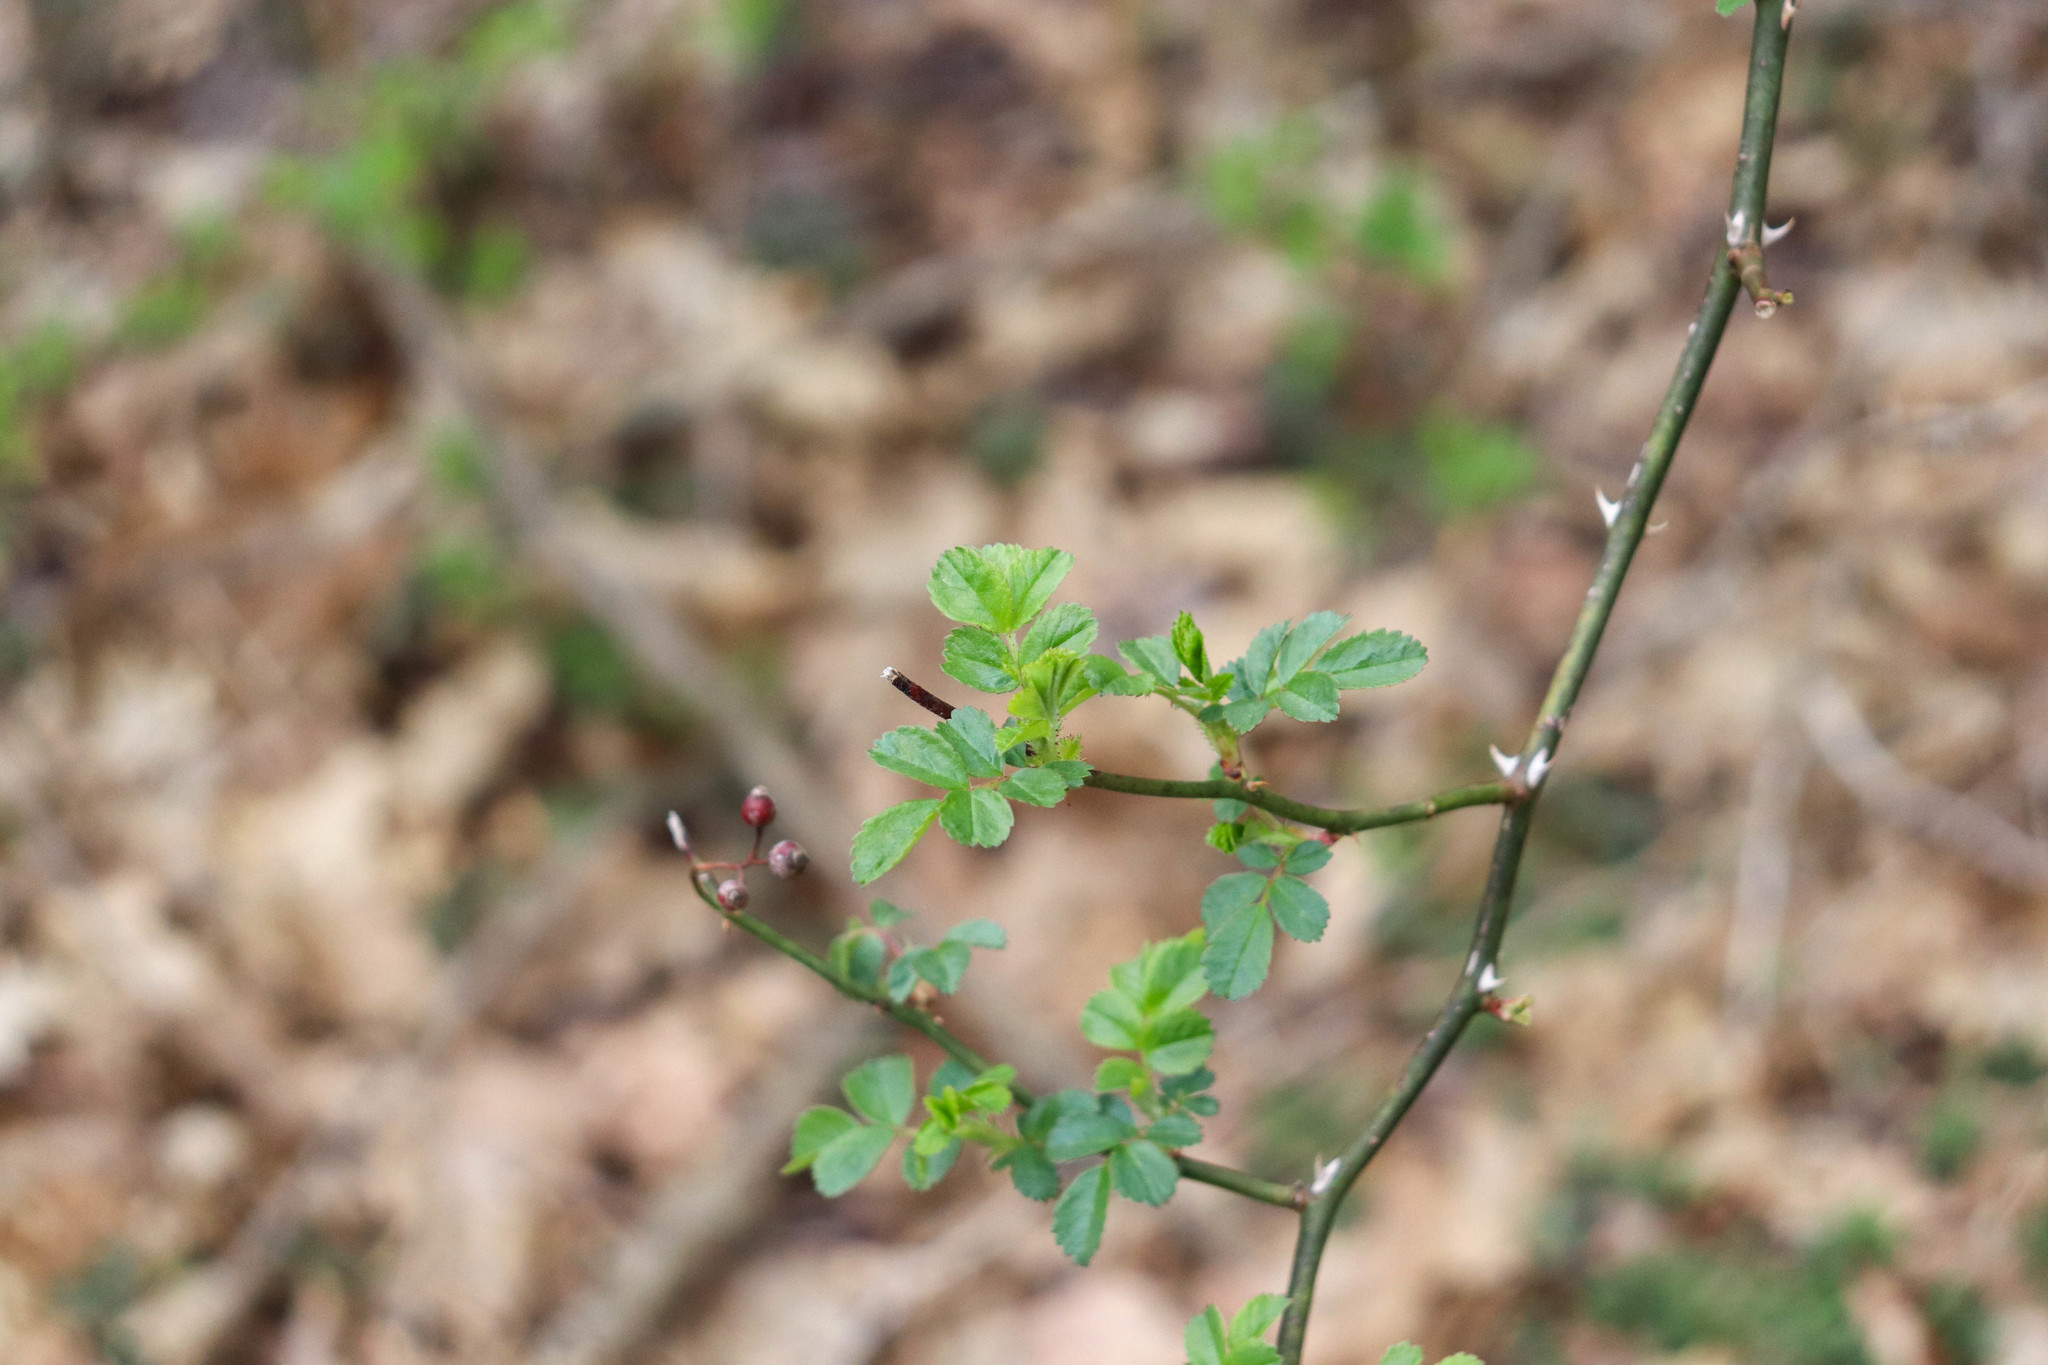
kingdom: Plantae
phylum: Tracheophyta
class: Magnoliopsida
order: Rosales
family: Rosaceae
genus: Rosa
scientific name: Rosa multiflora
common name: Multiflora rose
